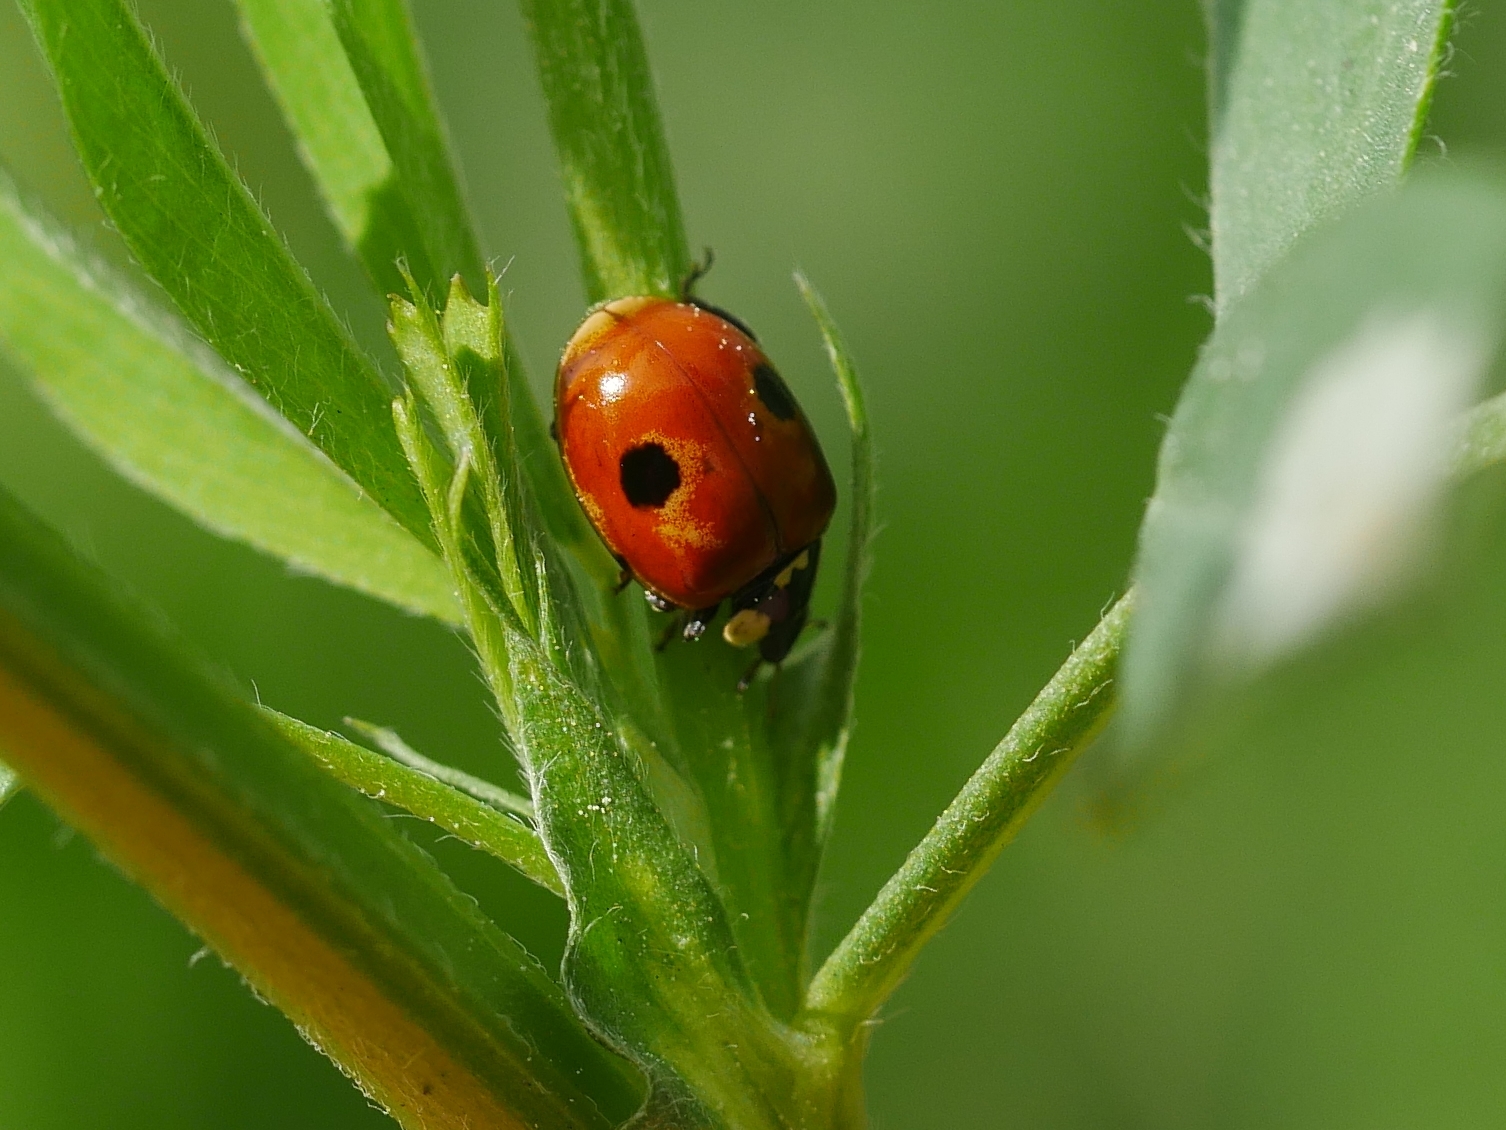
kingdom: Animalia
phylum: Arthropoda
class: Insecta
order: Coleoptera
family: Coccinellidae
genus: Adalia
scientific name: Adalia bipunctata
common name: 2-spot ladybird
